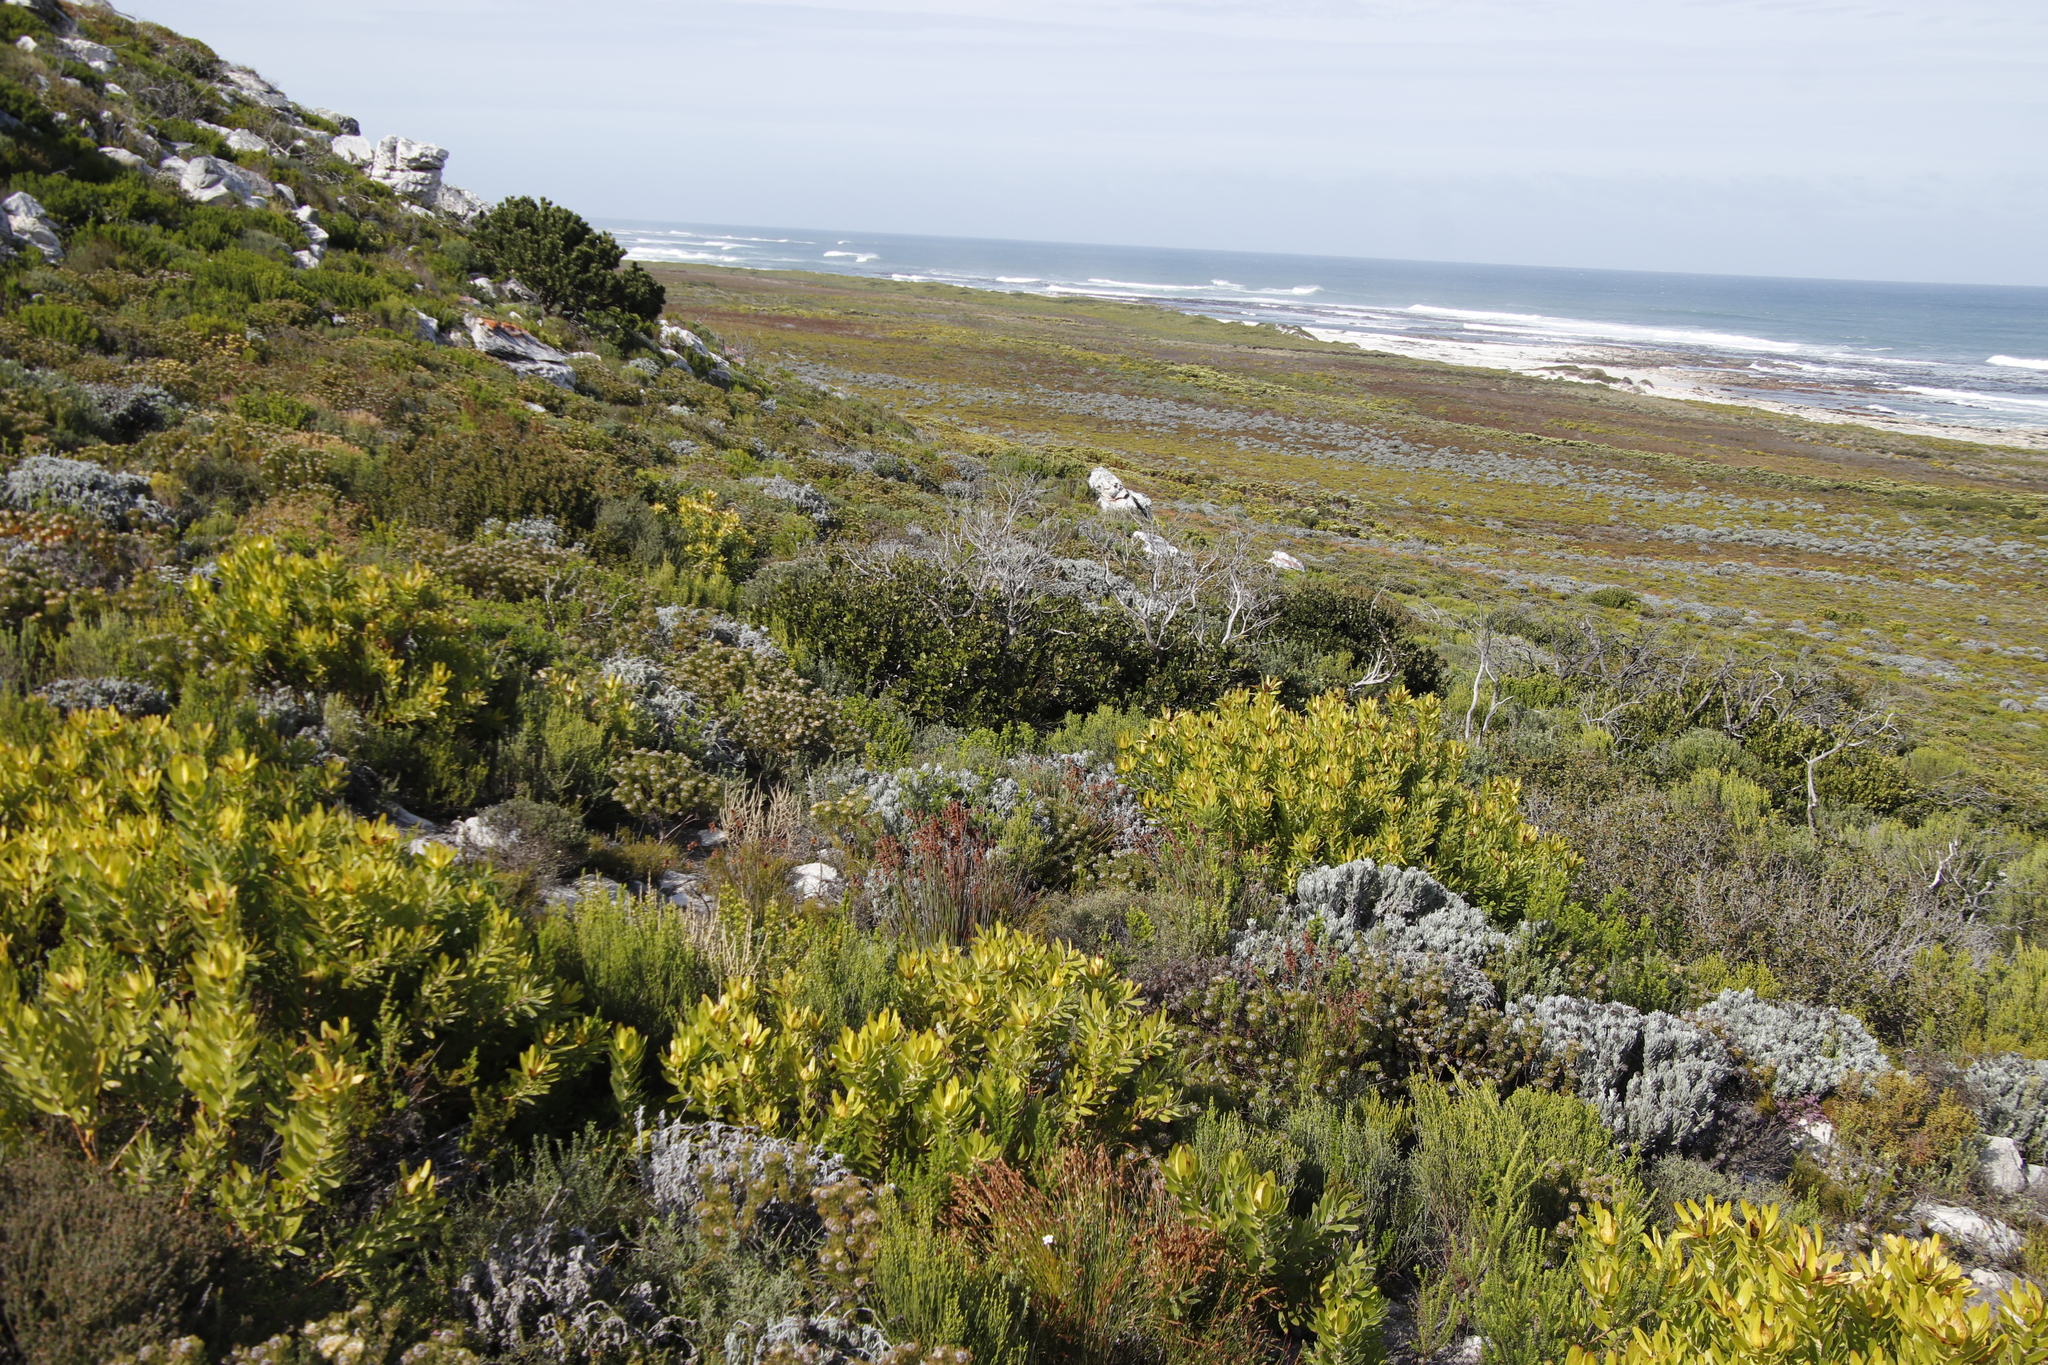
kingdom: Plantae
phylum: Tracheophyta
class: Magnoliopsida
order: Proteales
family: Proteaceae
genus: Leucospermum
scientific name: Leucospermum conocarpodendron
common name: Tree pincushion
